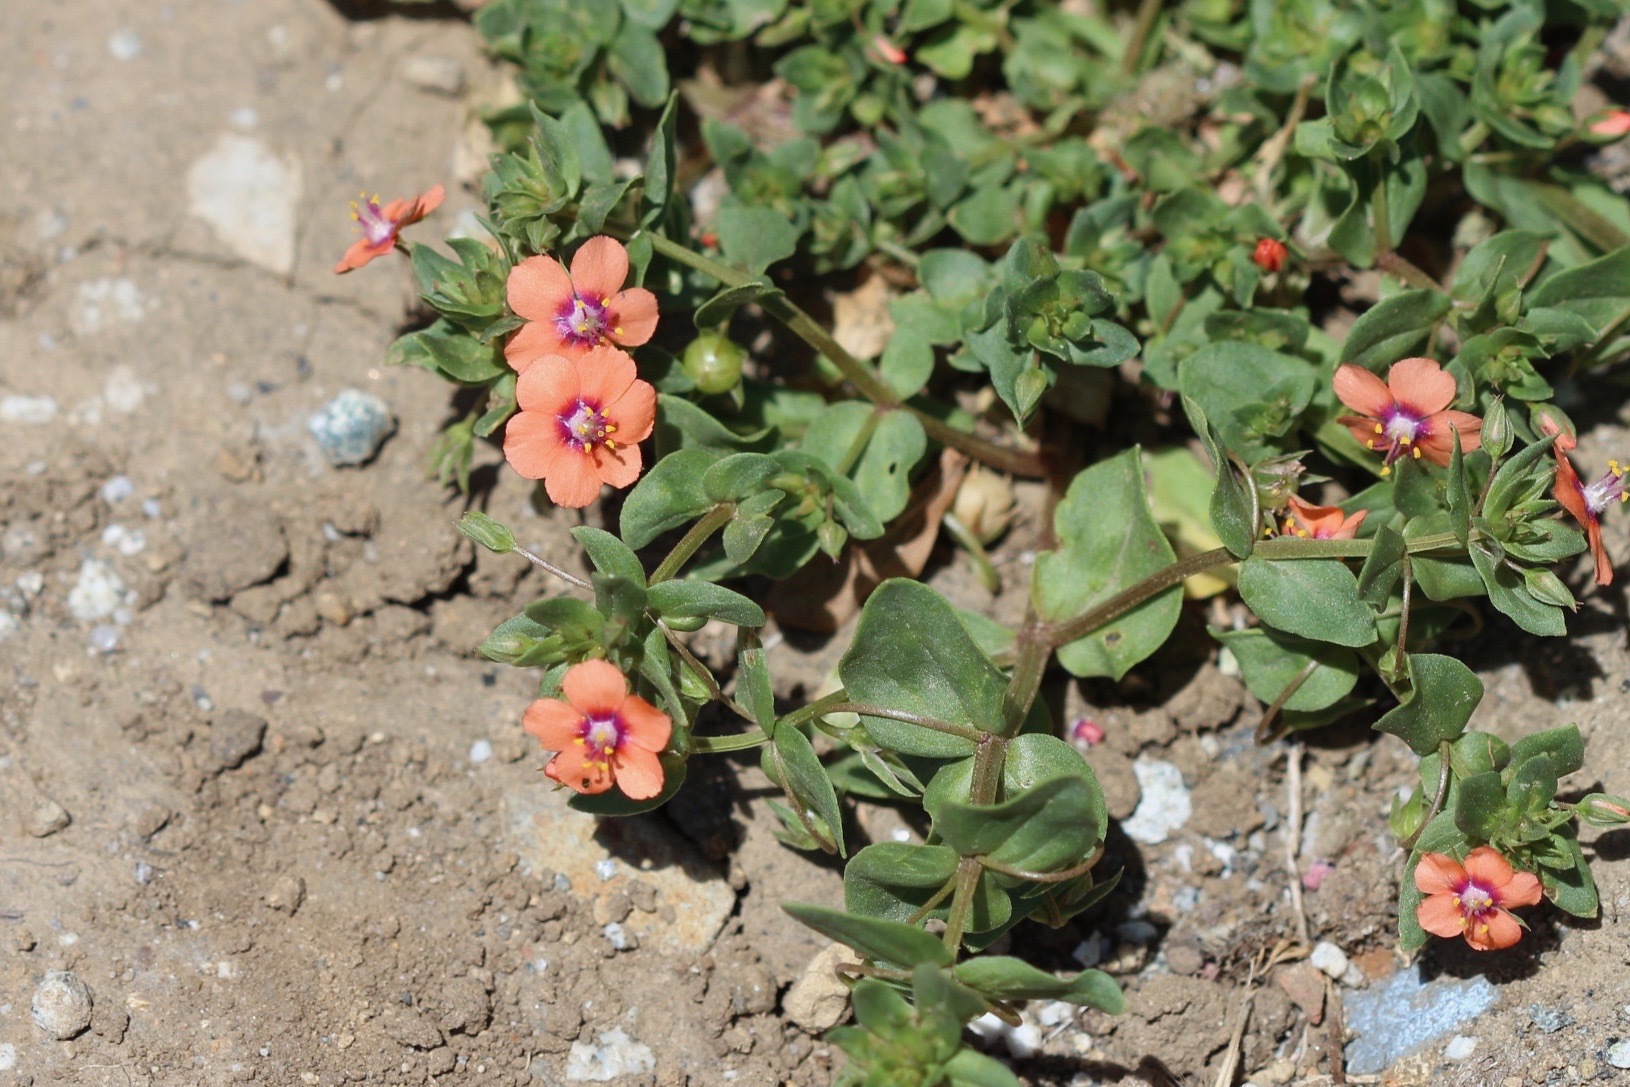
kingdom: Plantae
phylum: Tracheophyta
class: Magnoliopsida
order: Ericales
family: Primulaceae
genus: Lysimachia
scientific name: Lysimachia arvensis
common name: Scarlet pimpernel
